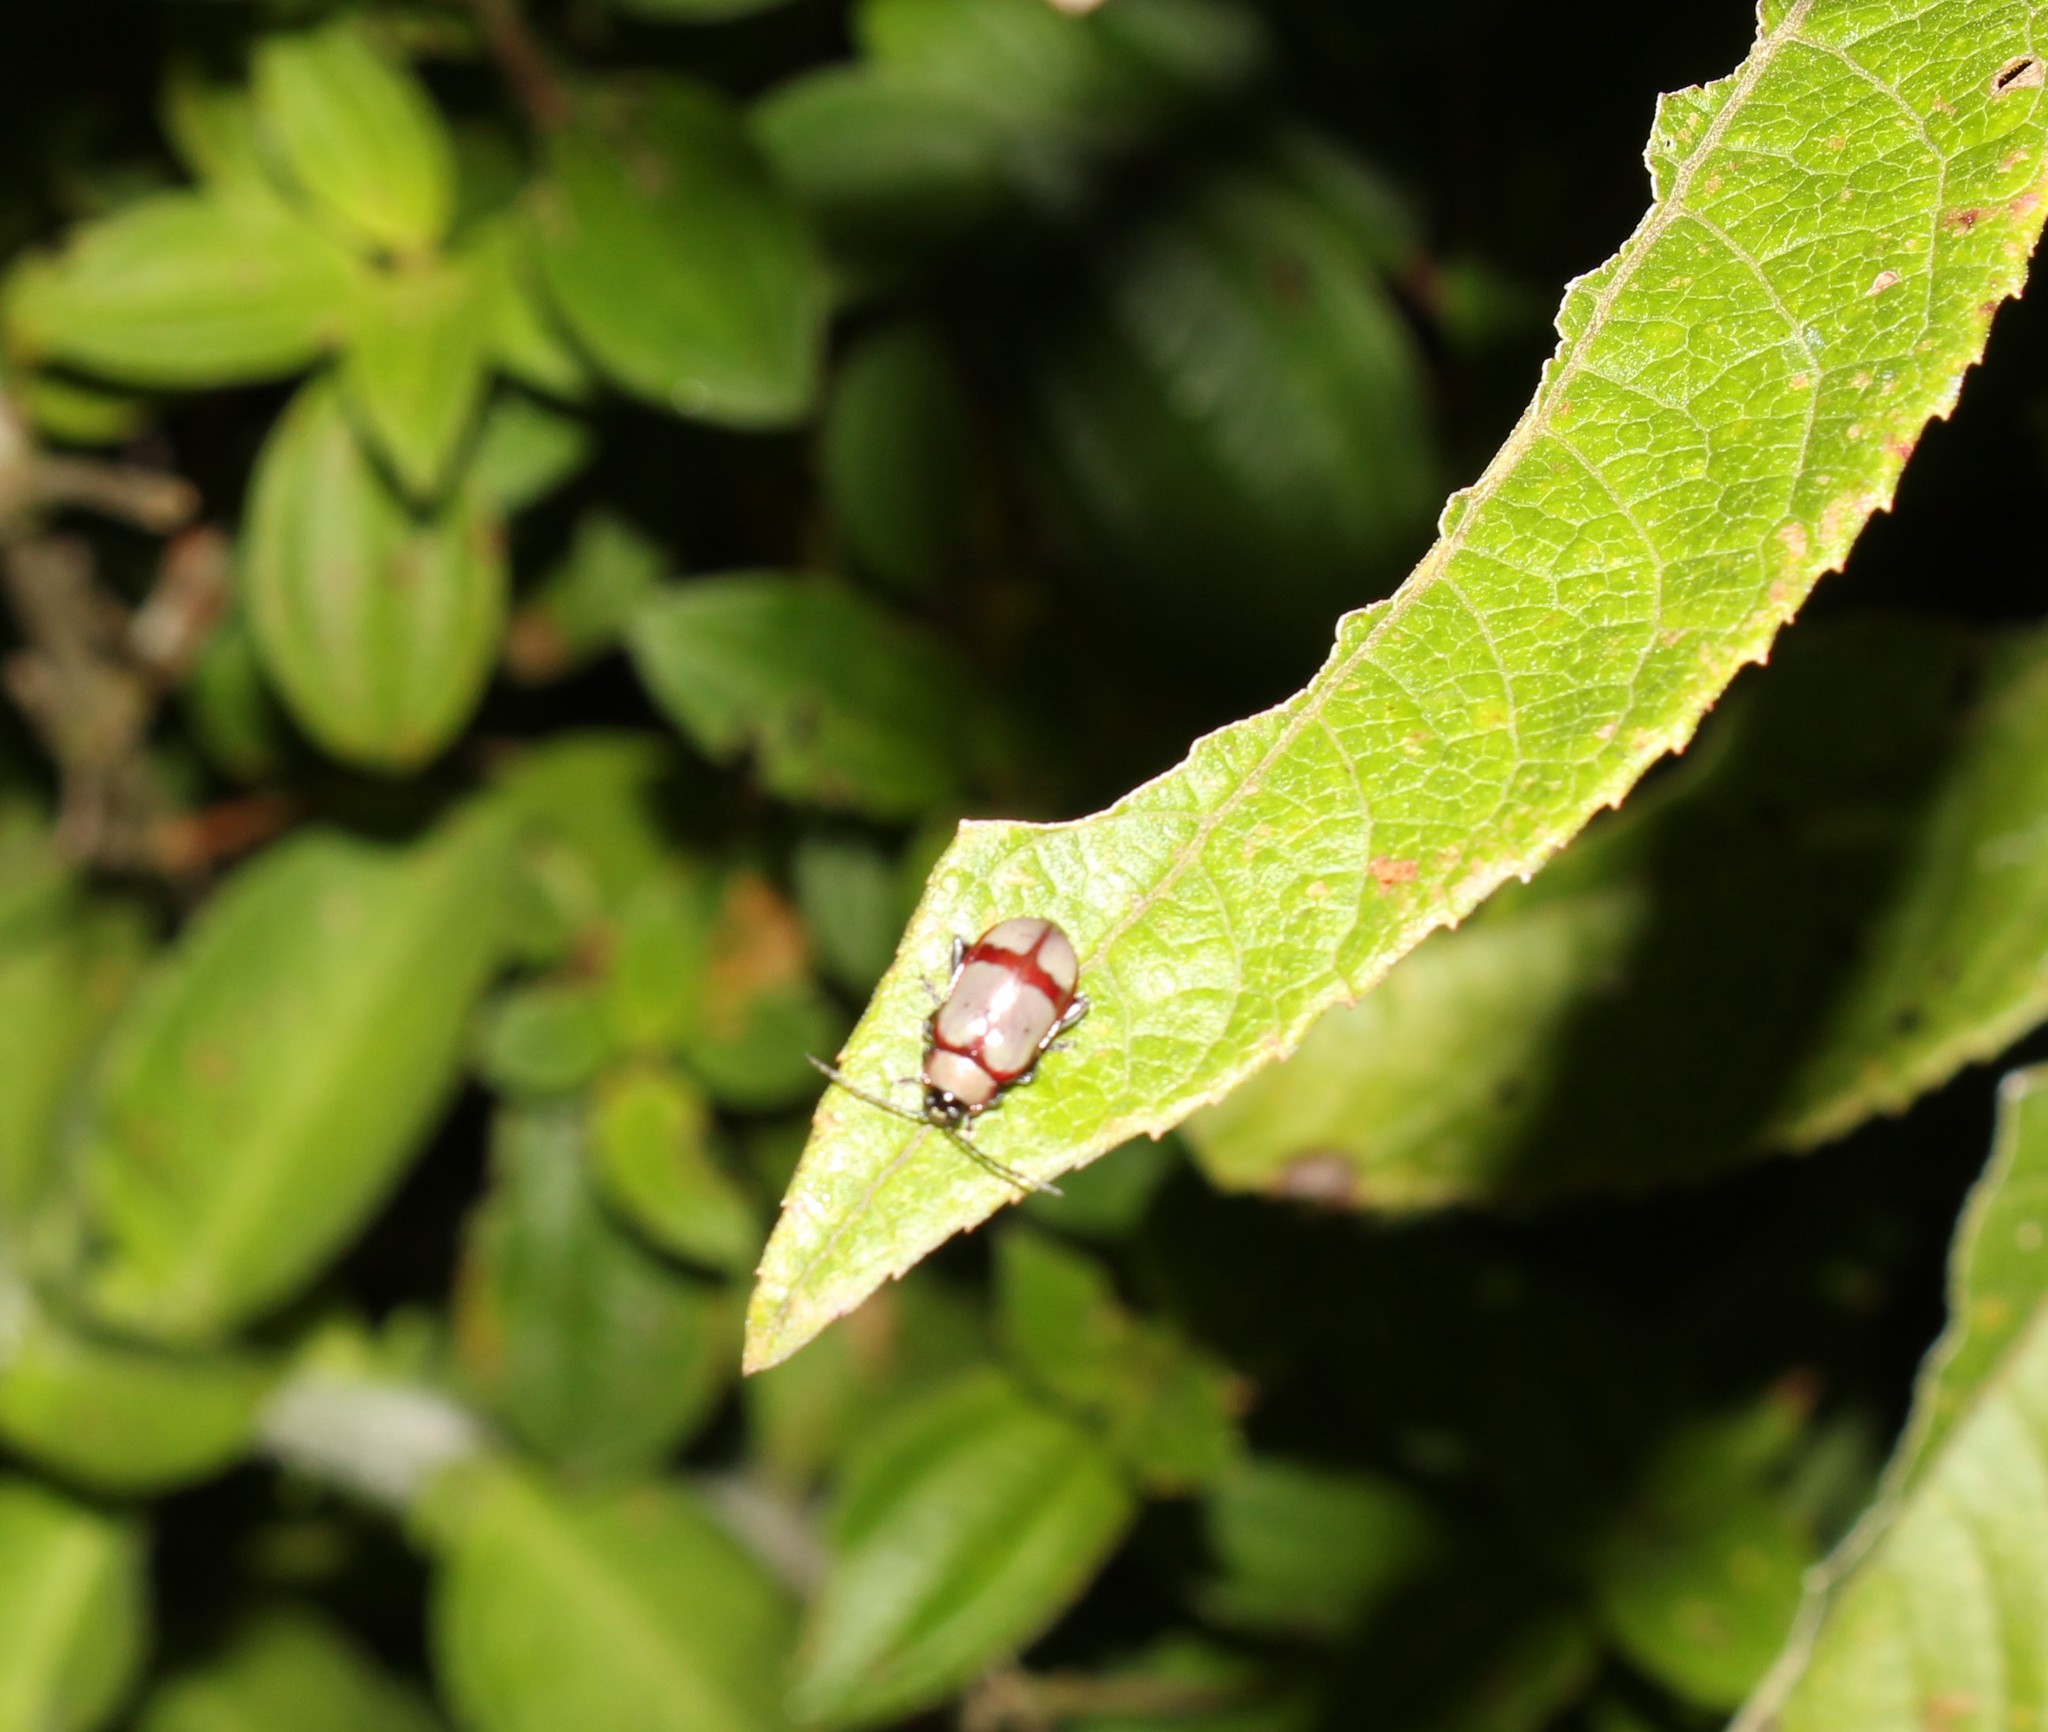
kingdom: Animalia
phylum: Arthropoda
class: Insecta
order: Coleoptera
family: Chrysomelidae
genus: Omophoita
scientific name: Omophoita
